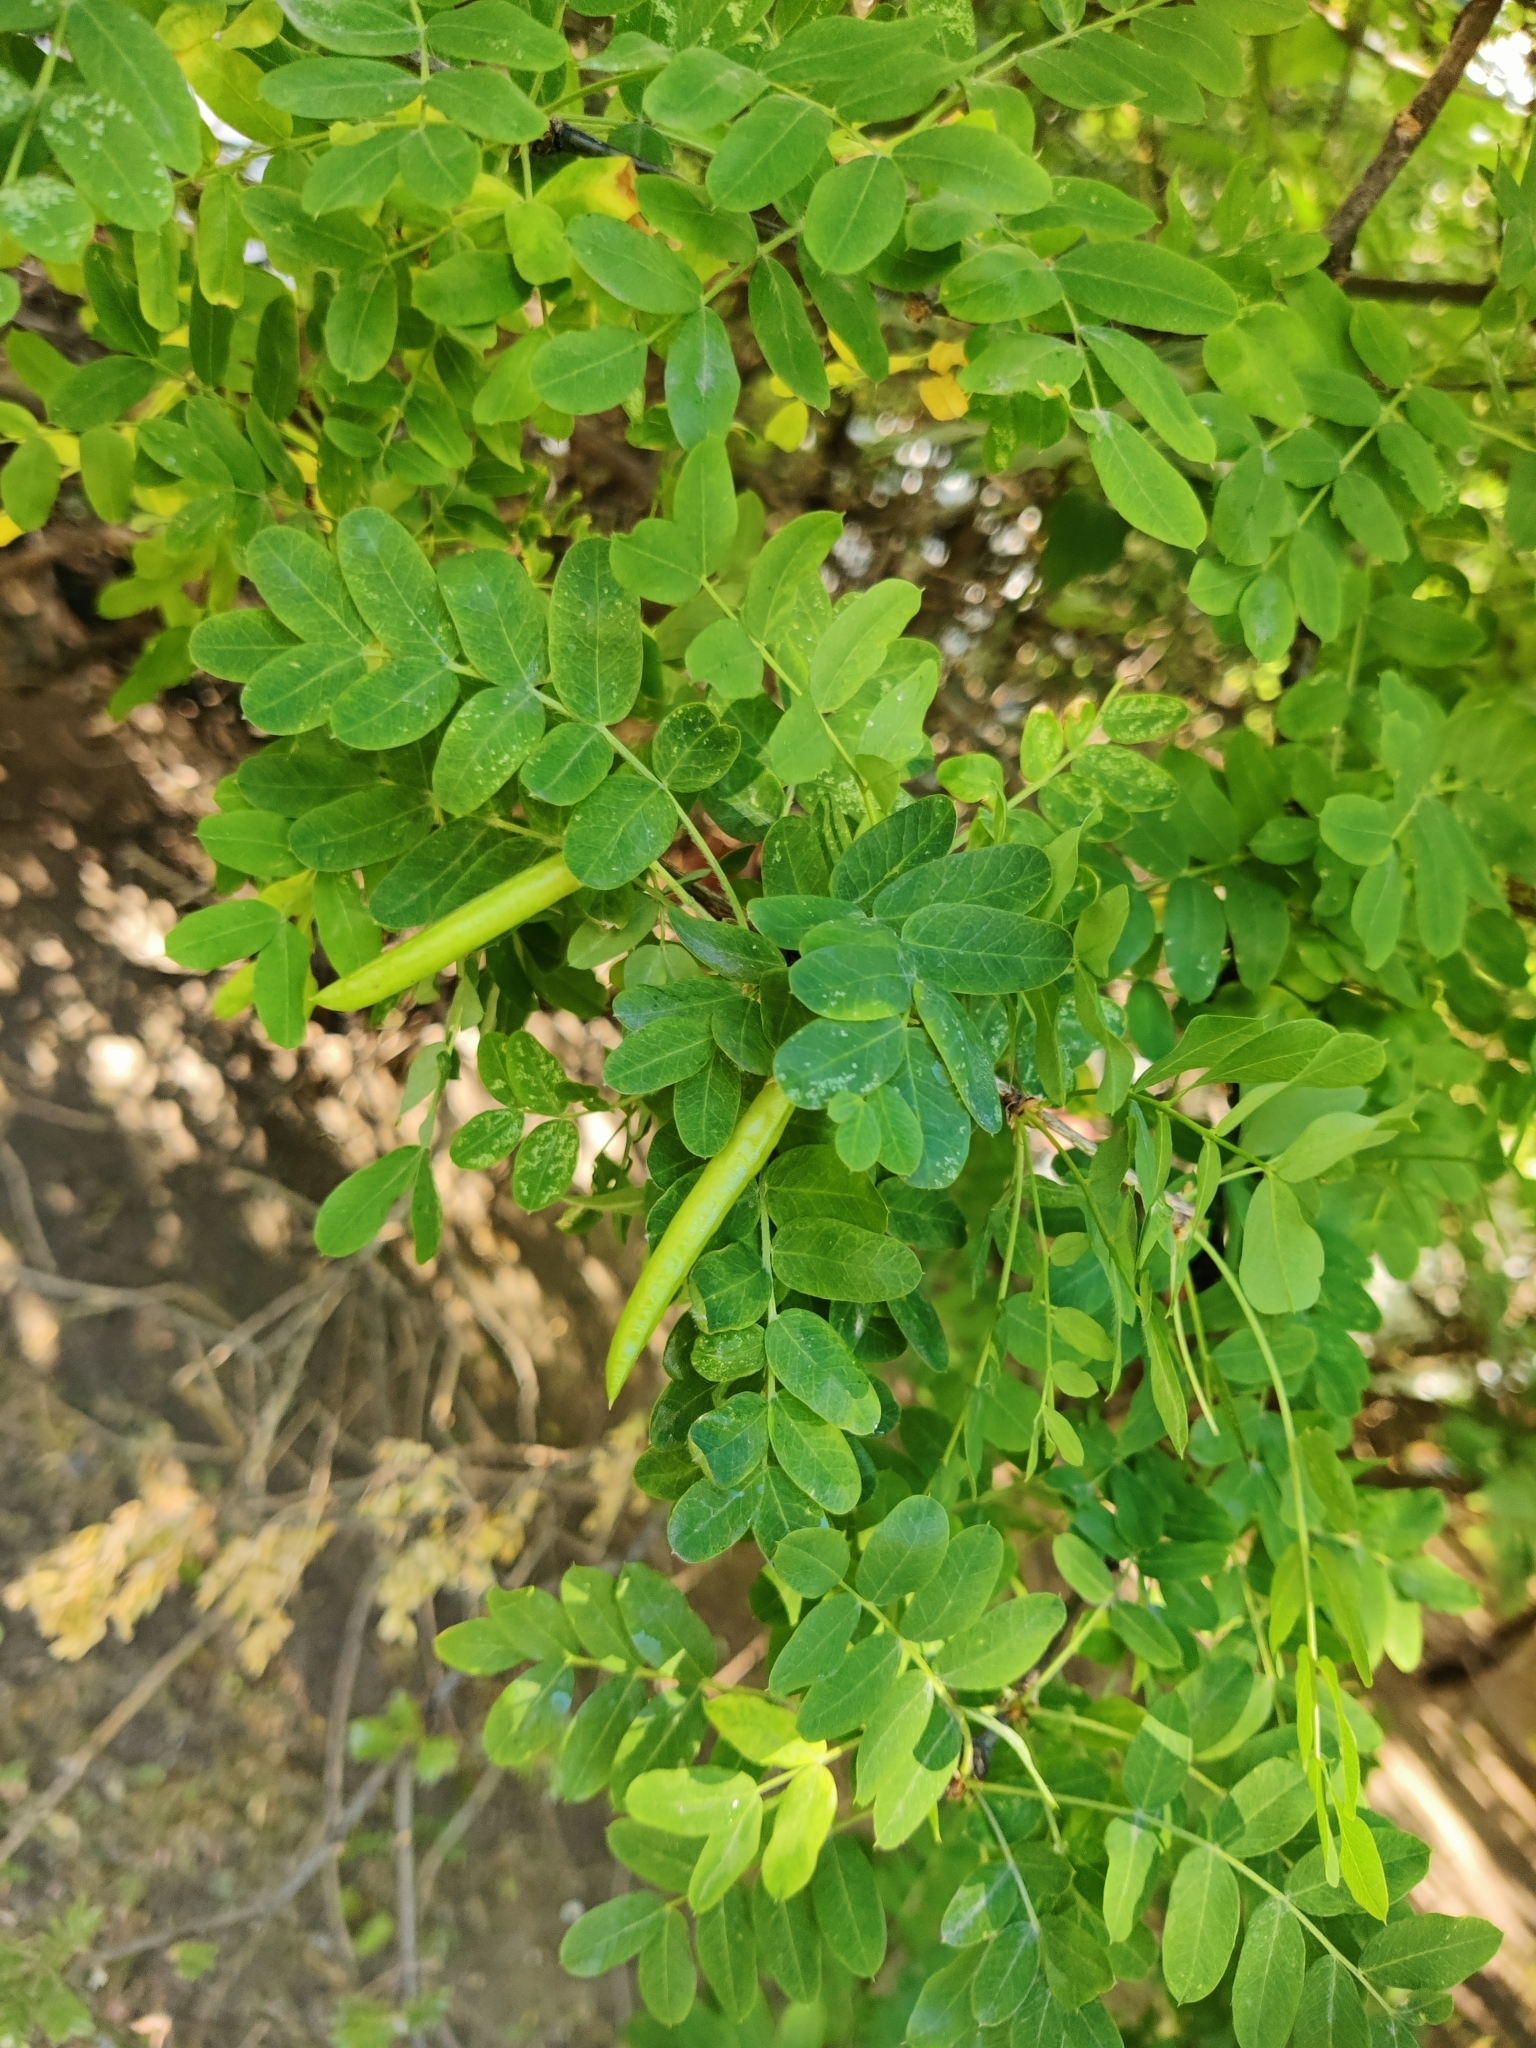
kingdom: Plantae
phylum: Tracheophyta
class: Magnoliopsida
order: Fabales
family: Fabaceae
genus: Caragana
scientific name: Caragana arborescens
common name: Siberian peashrub
